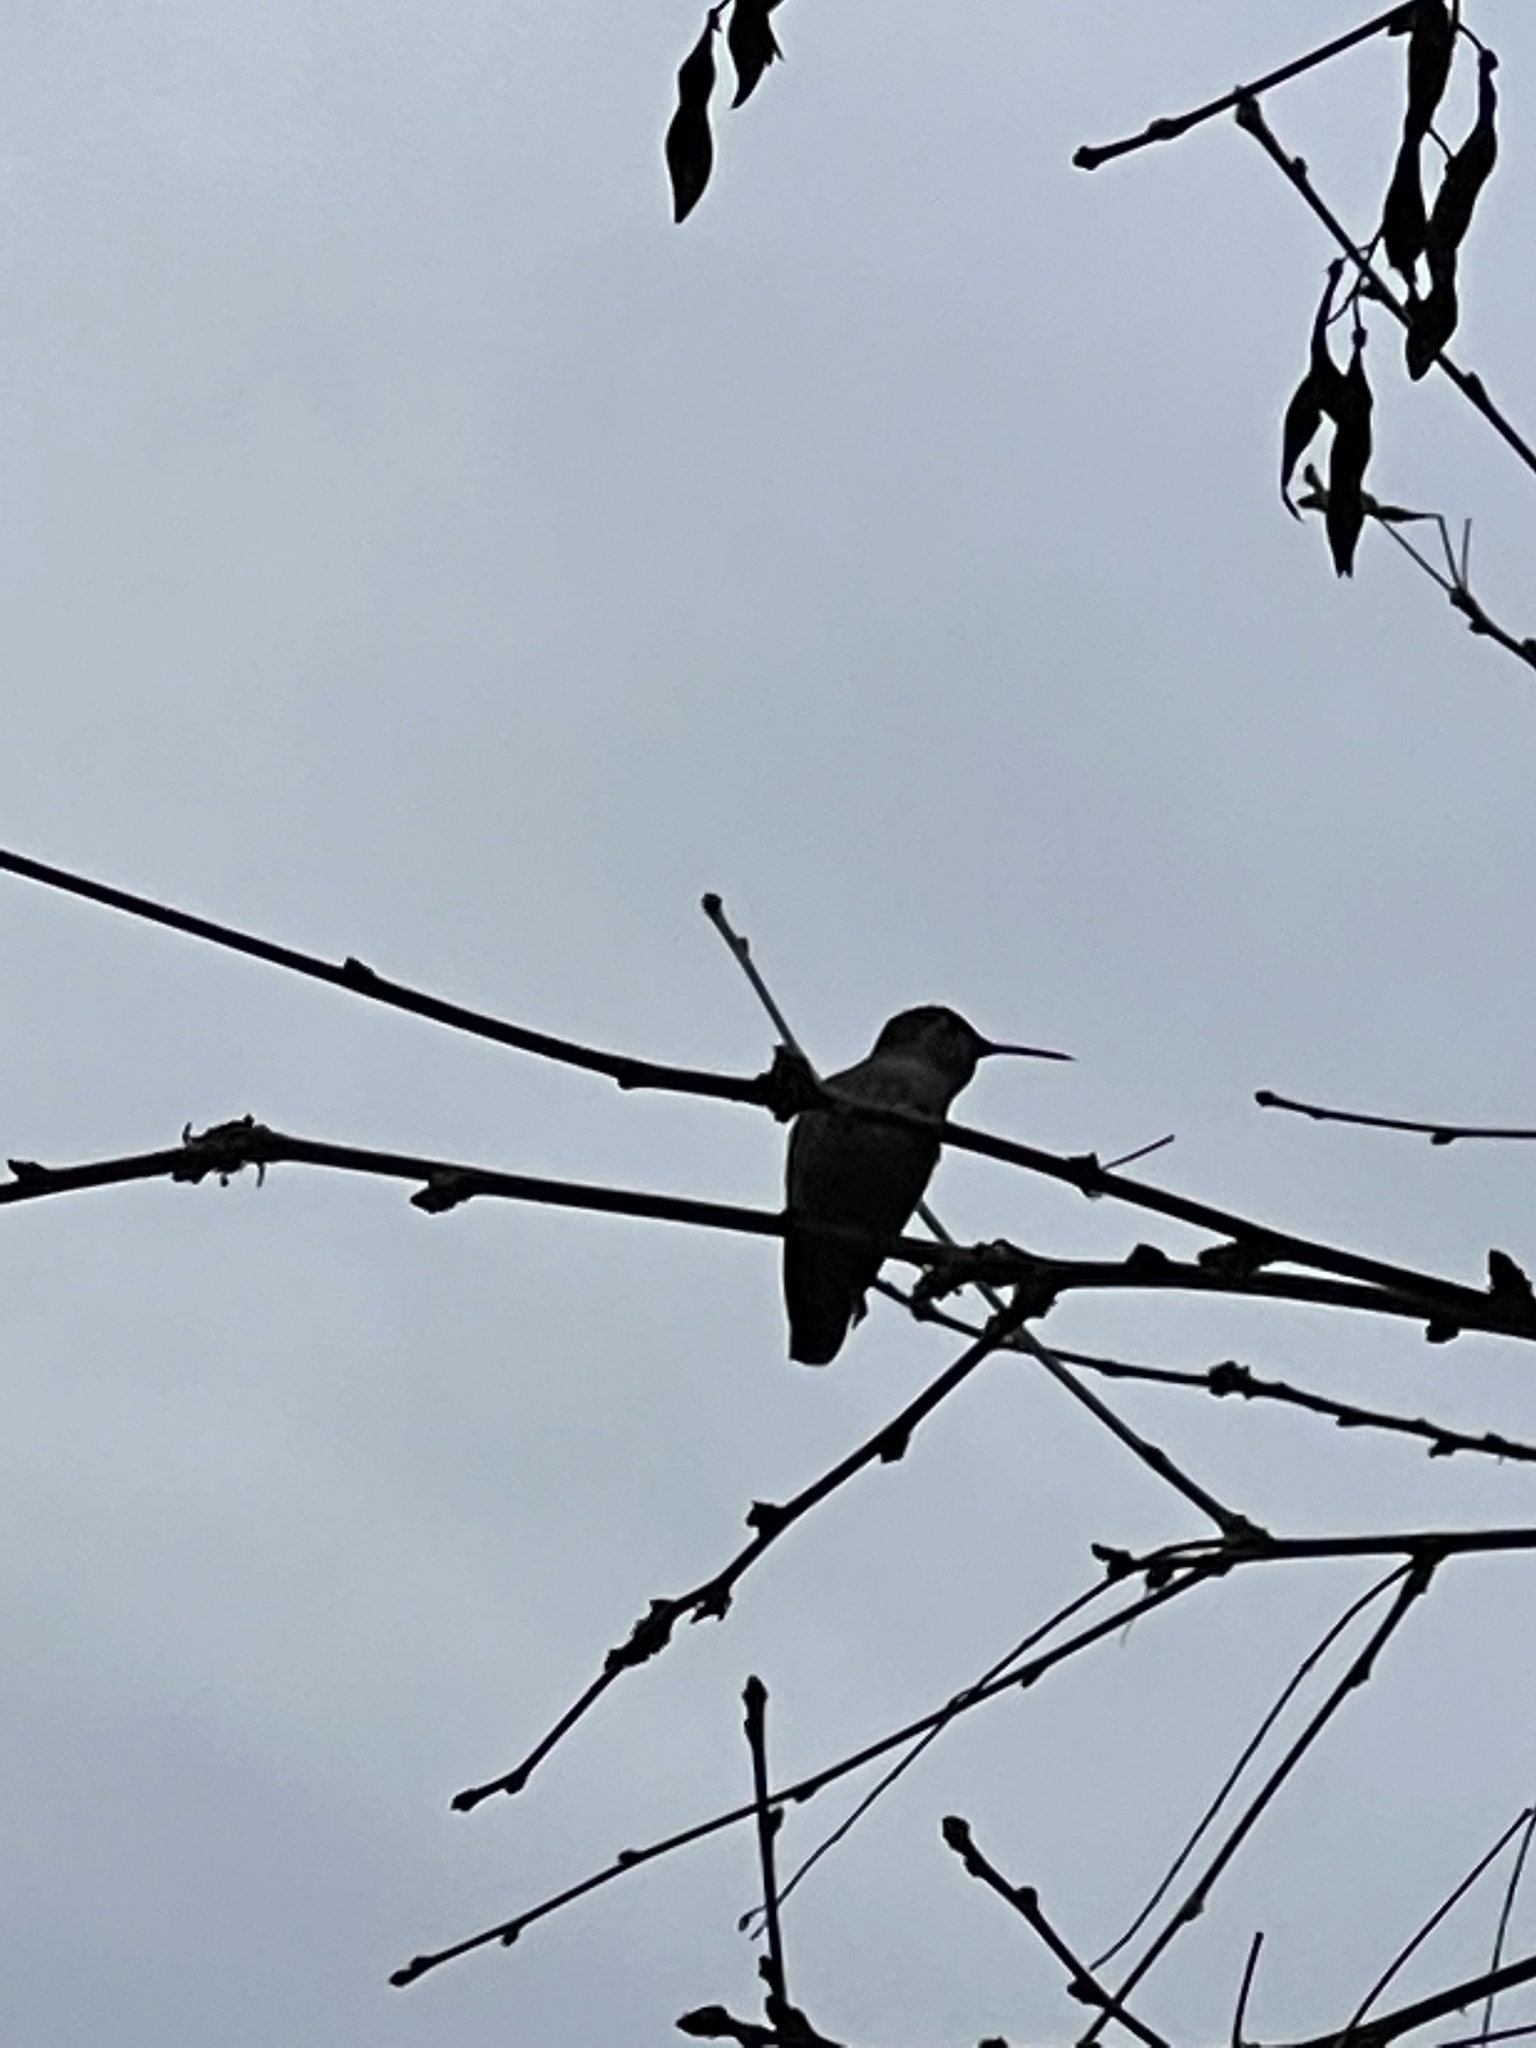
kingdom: Animalia
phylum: Chordata
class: Aves
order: Apodiformes
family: Trochilidae
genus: Calypte
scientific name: Calypte anna
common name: Anna's hummingbird
